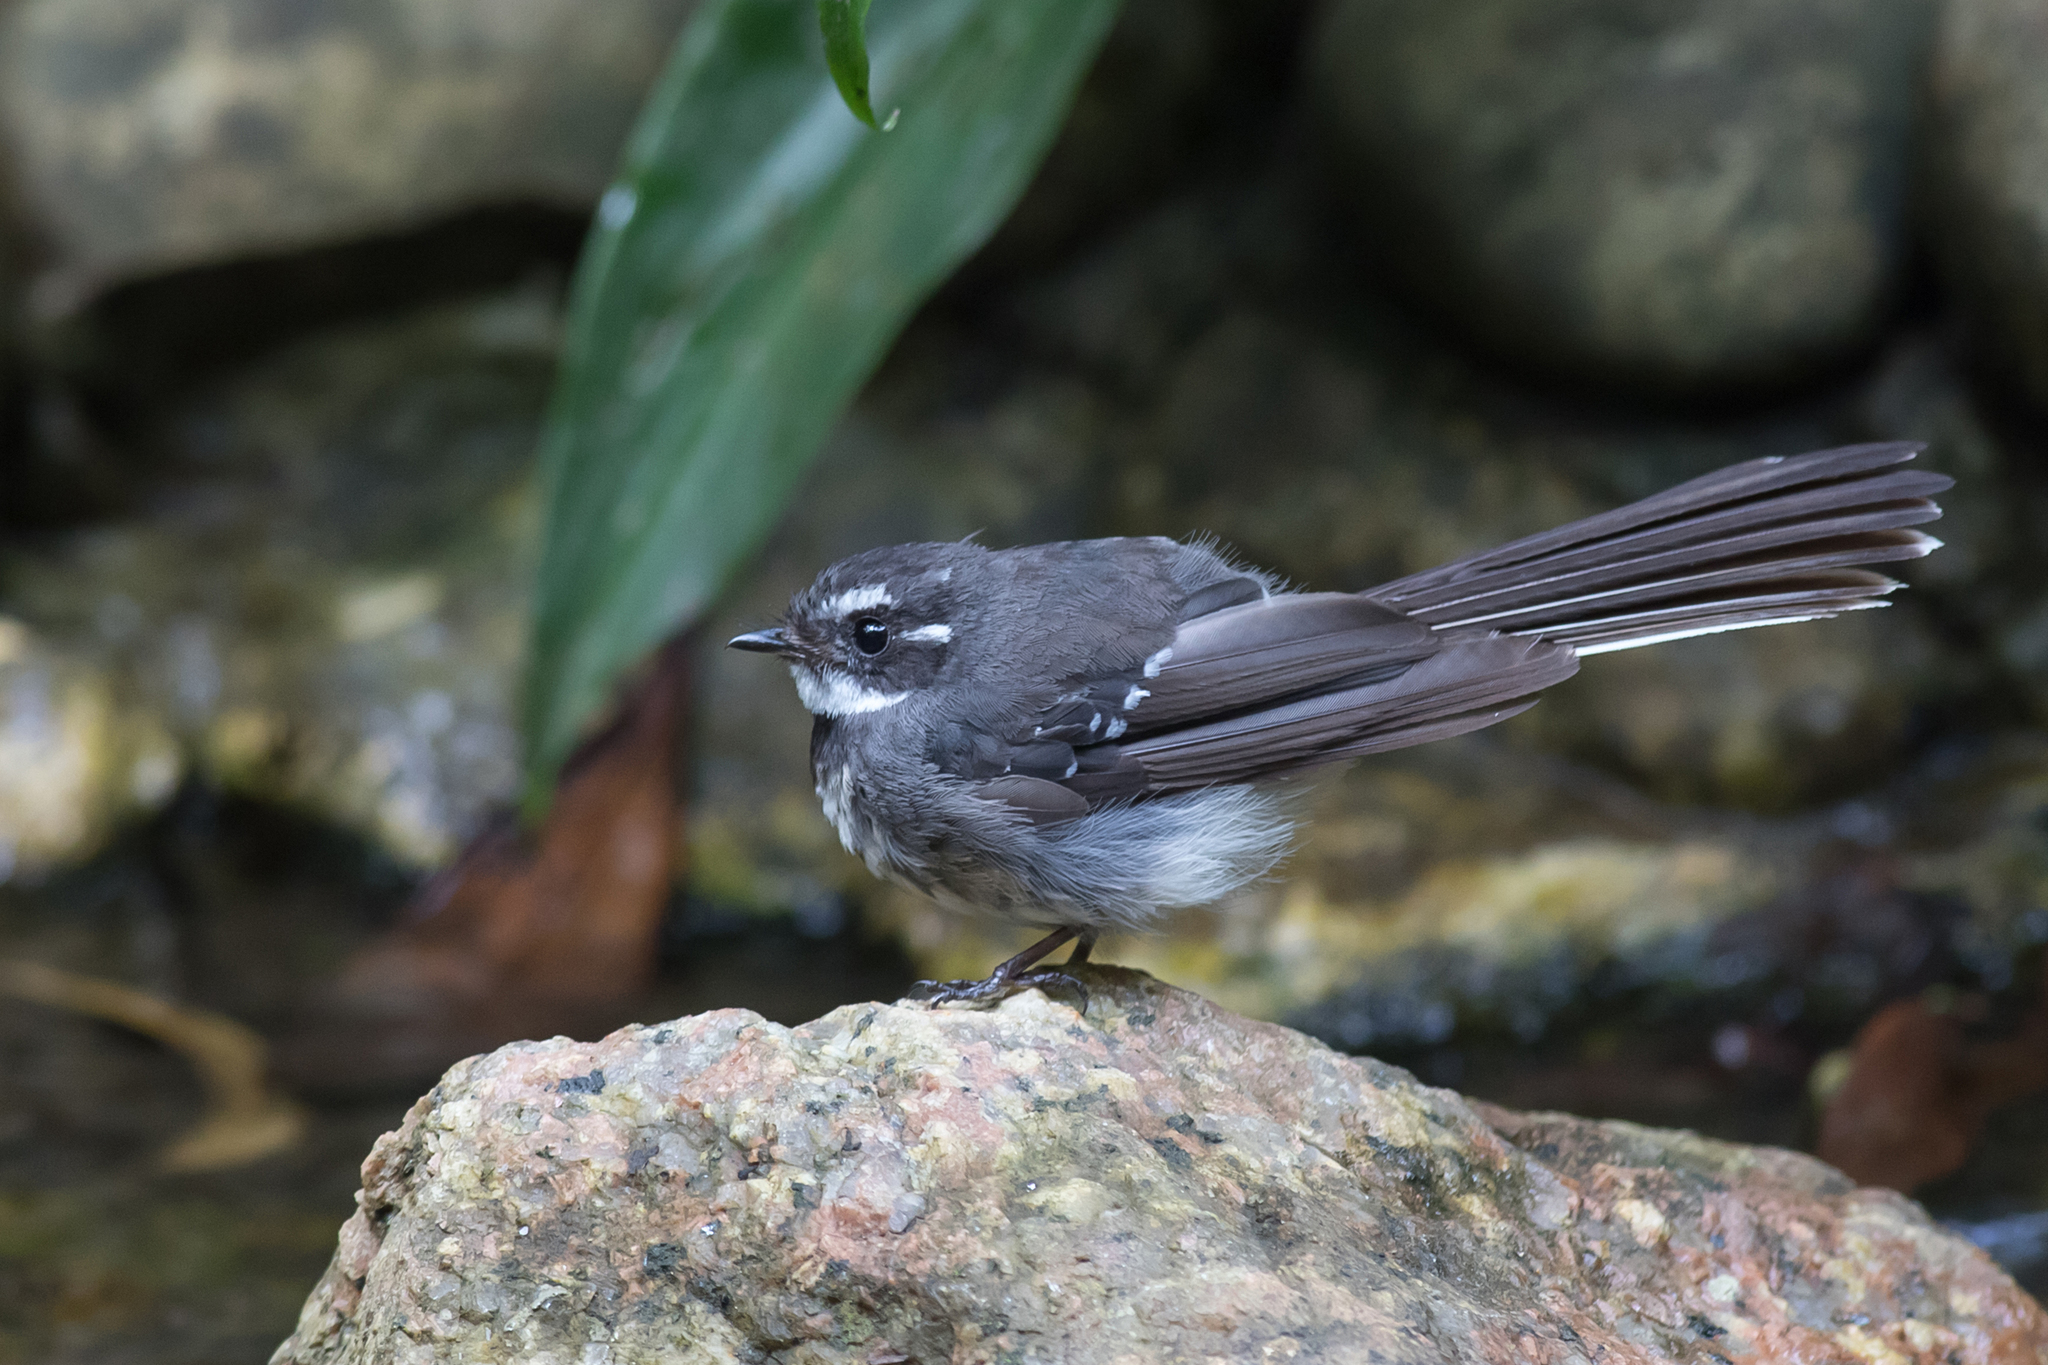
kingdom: Animalia
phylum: Chordata
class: Aves
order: Passeriformes
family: Rhipiduridae
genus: Rhipidura
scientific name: Rhipidura albiscapa
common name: Grey fantail
